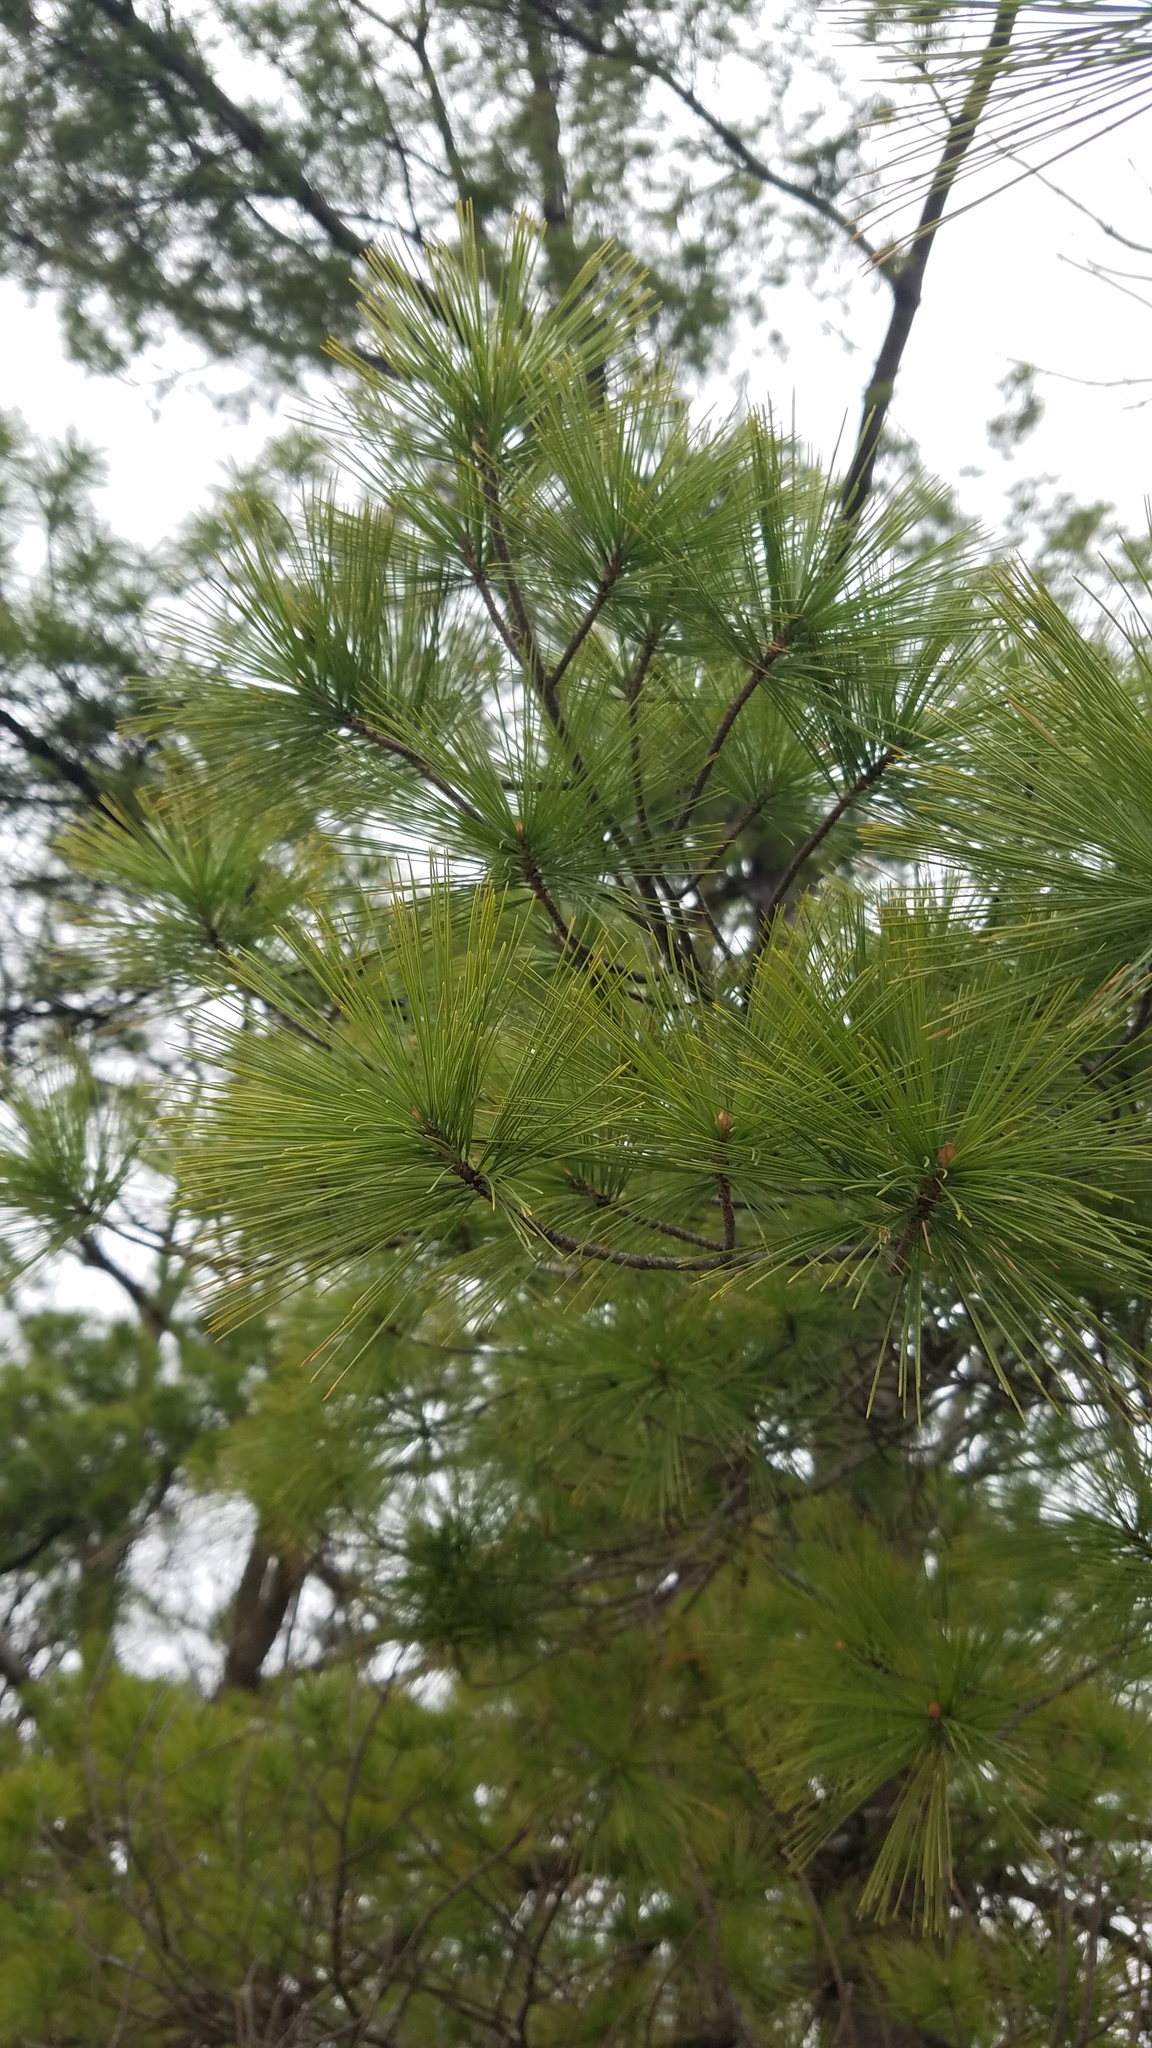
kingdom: Plantae
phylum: Tracheophyta
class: Pinopsida
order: Pinales
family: Pinaceae
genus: Pinus
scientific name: Pinus strobus
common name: Weymouth pine
